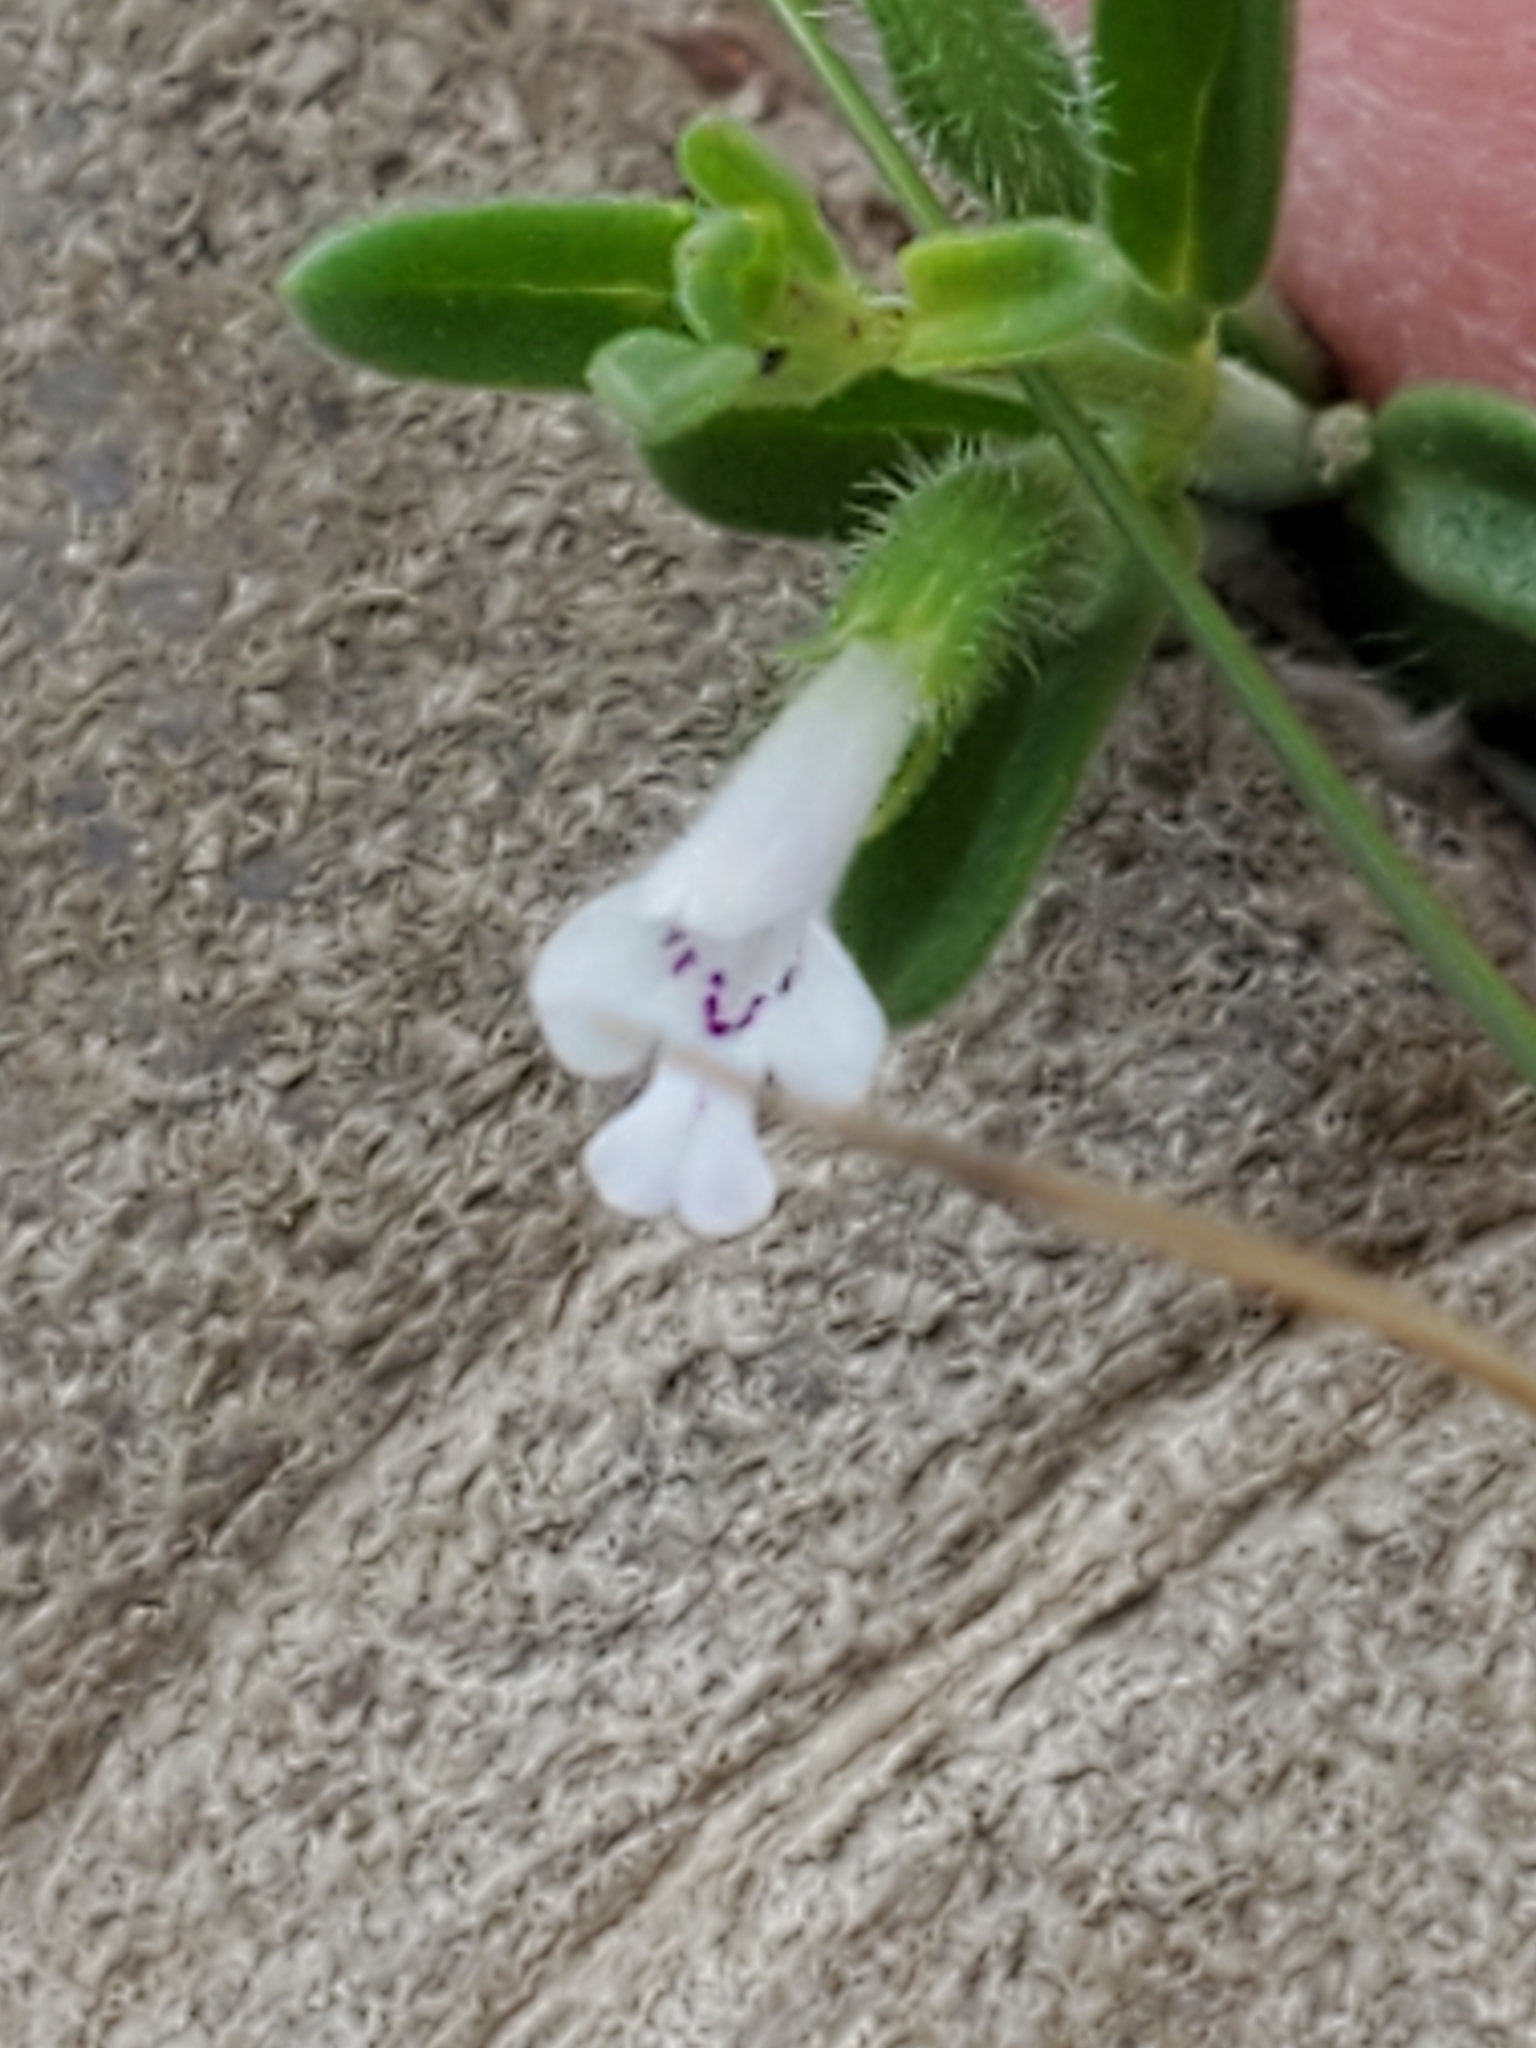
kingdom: Plantae
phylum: Tracheophyta
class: Magnoliopsida
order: Lamiales
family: Lamiaceae
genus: Hedeoma
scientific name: Hedeoma reverchonii
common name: Reverchon's false penny-royal
